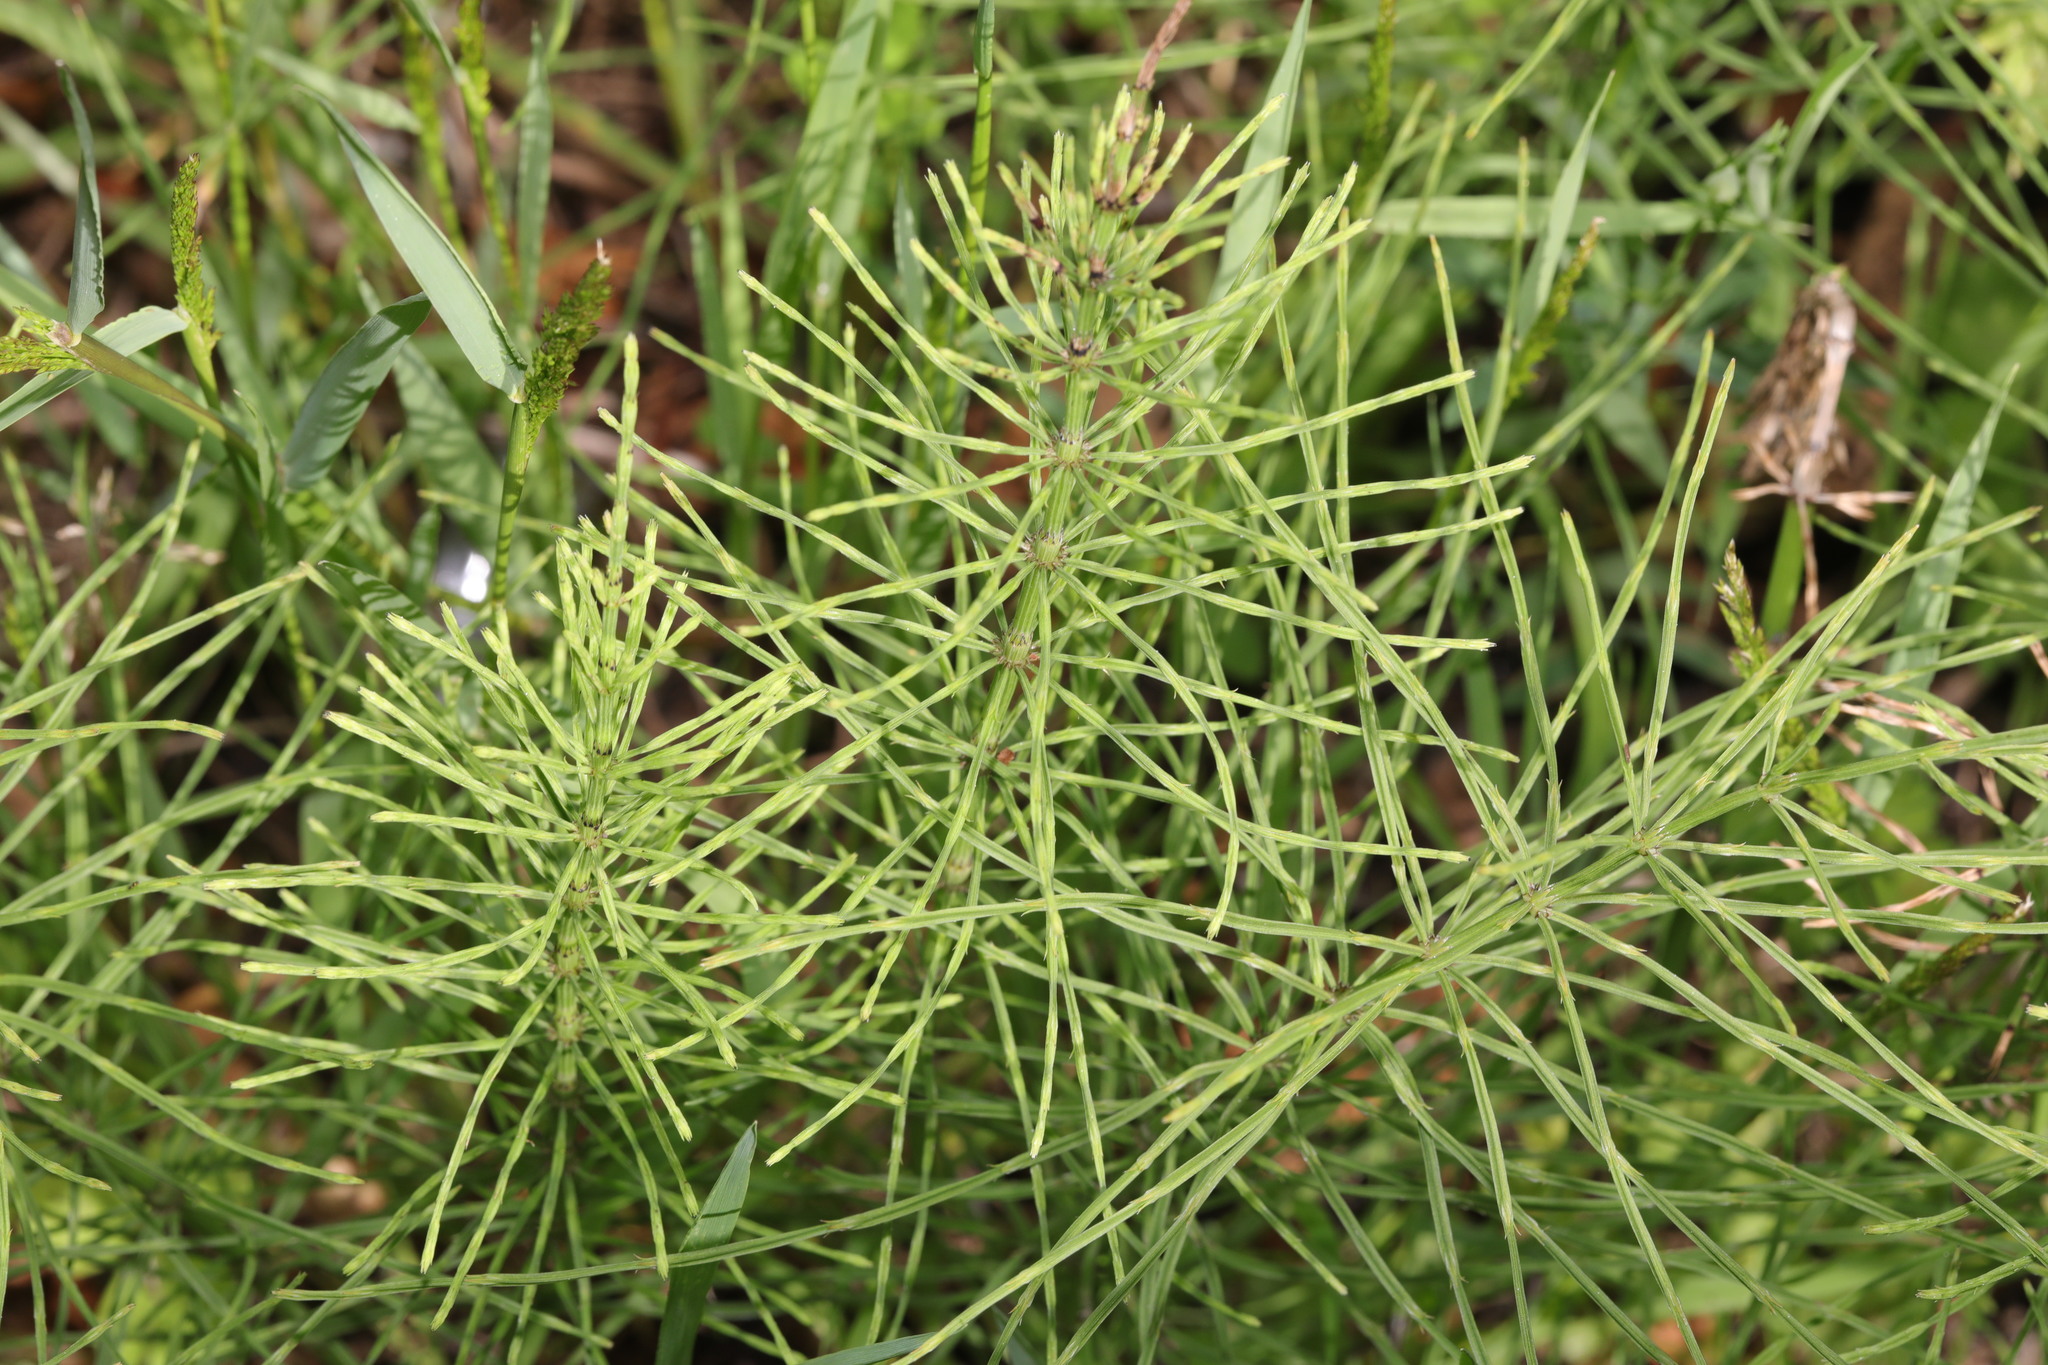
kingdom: Plantae
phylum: Tracheophyta
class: Polypodiopsida
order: Equisetales
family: Equisetaceae
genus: Equisetum
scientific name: Equisetum arvense
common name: Field horsetail
